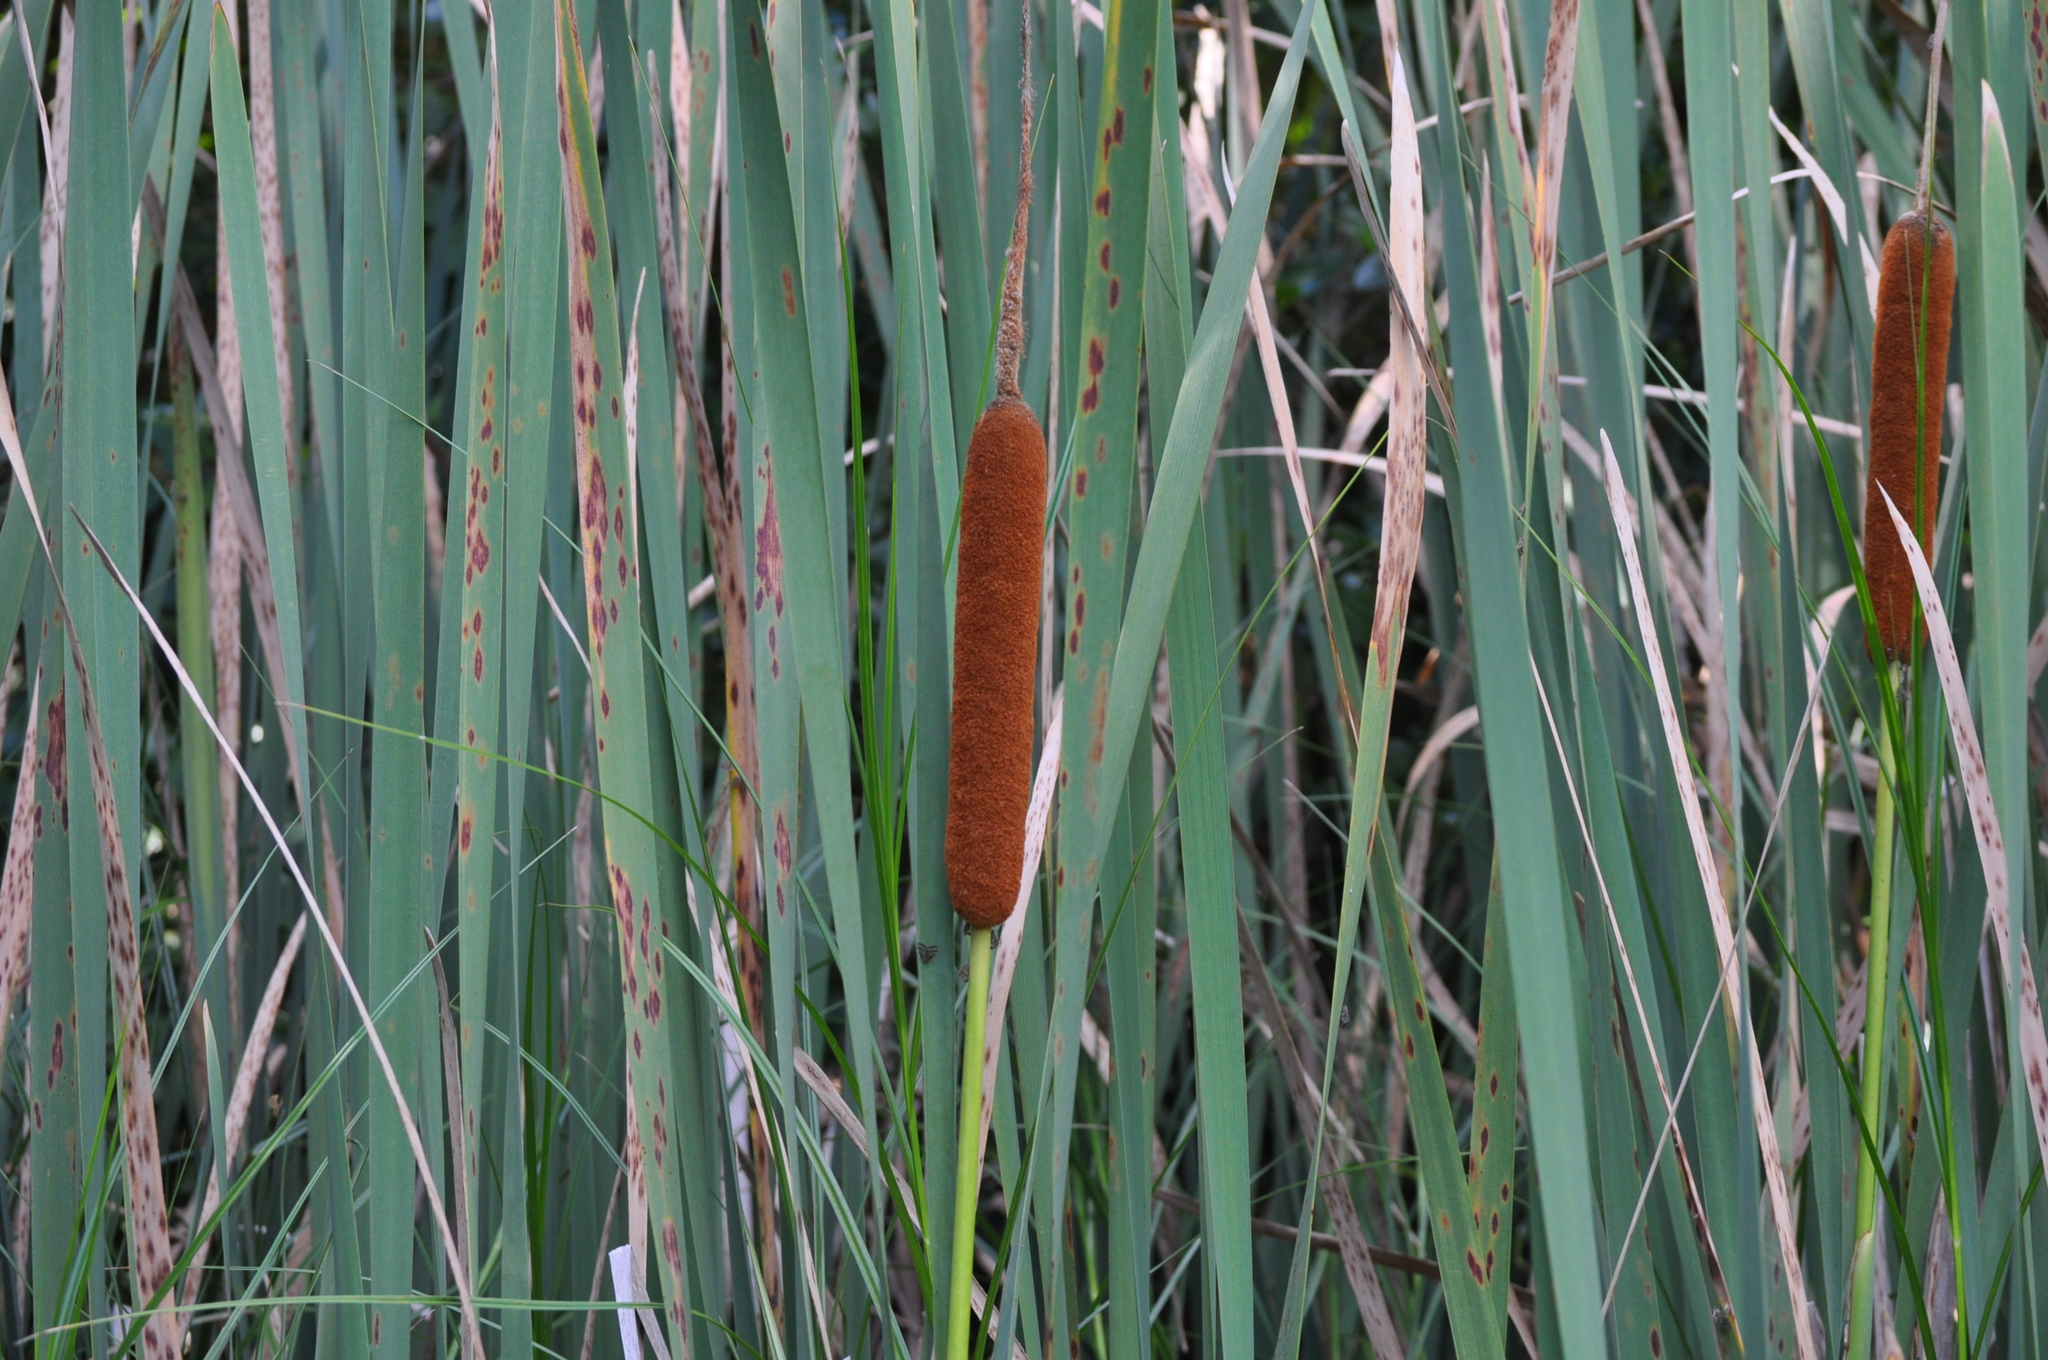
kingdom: Plantae
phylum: Tracheophyta
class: Liliopsida
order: Poales
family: Typhaceae
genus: Typha
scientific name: Typha orientalis
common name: Bullrush
